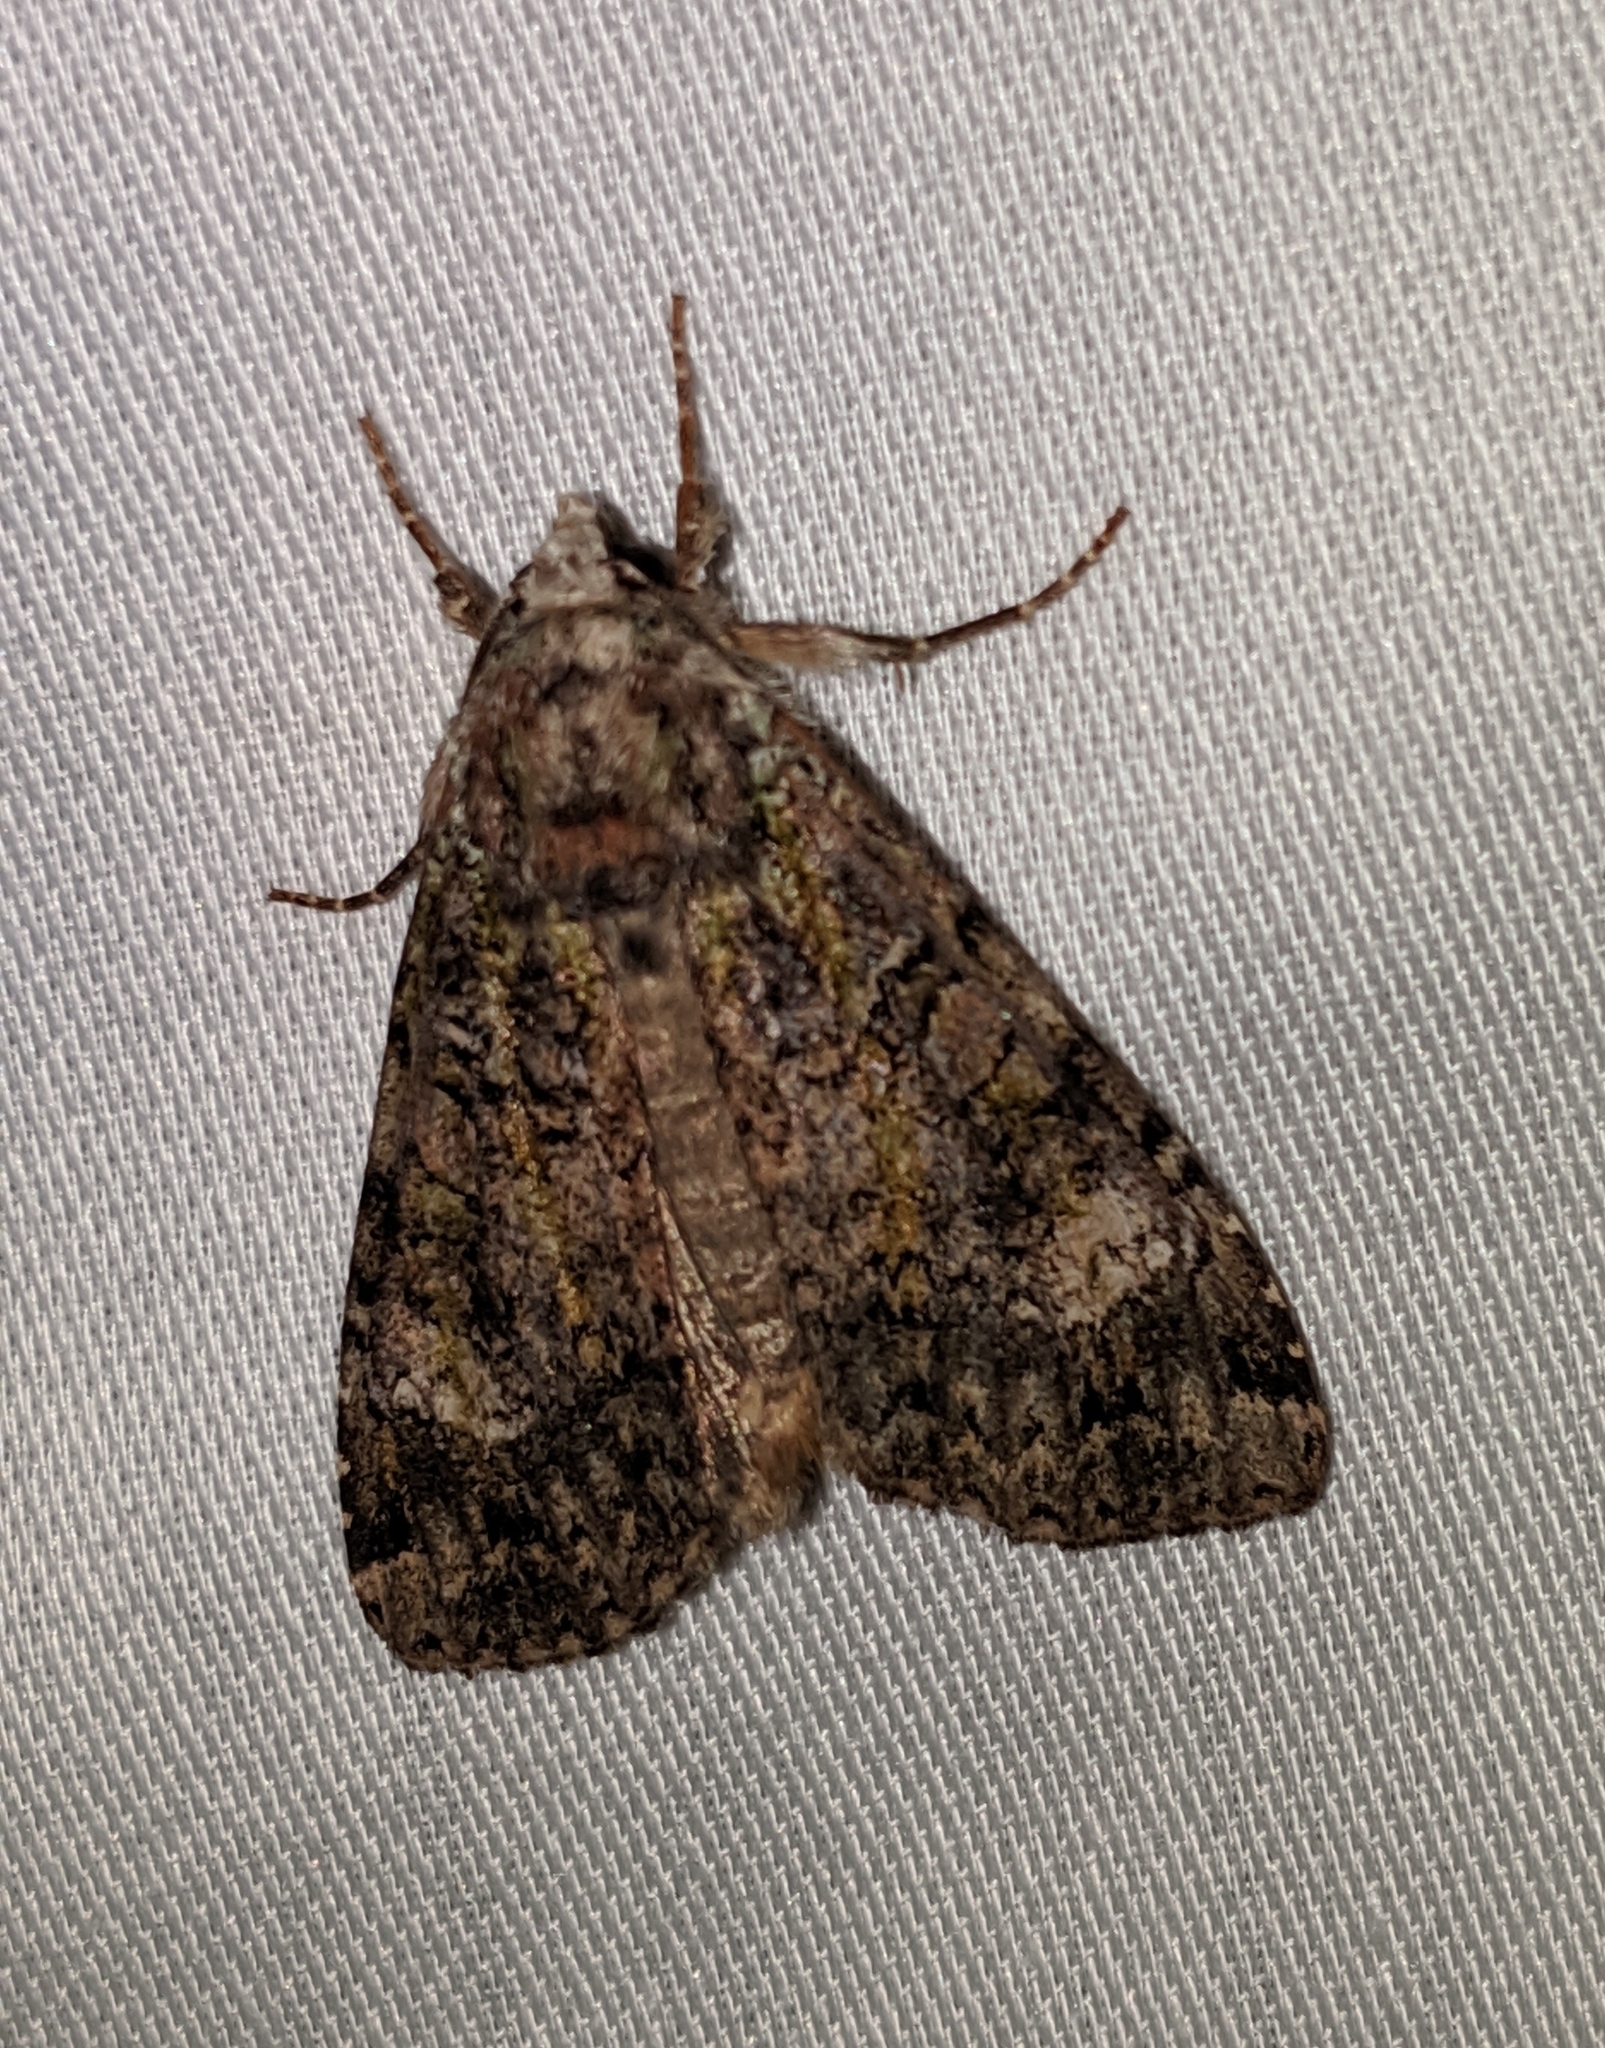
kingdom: Animalia
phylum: Arthropoda
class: Insecta
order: Lepidoptera
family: Noctuidae
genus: Anaplectoides
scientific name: Anaplectoides prasina
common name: Green arches
